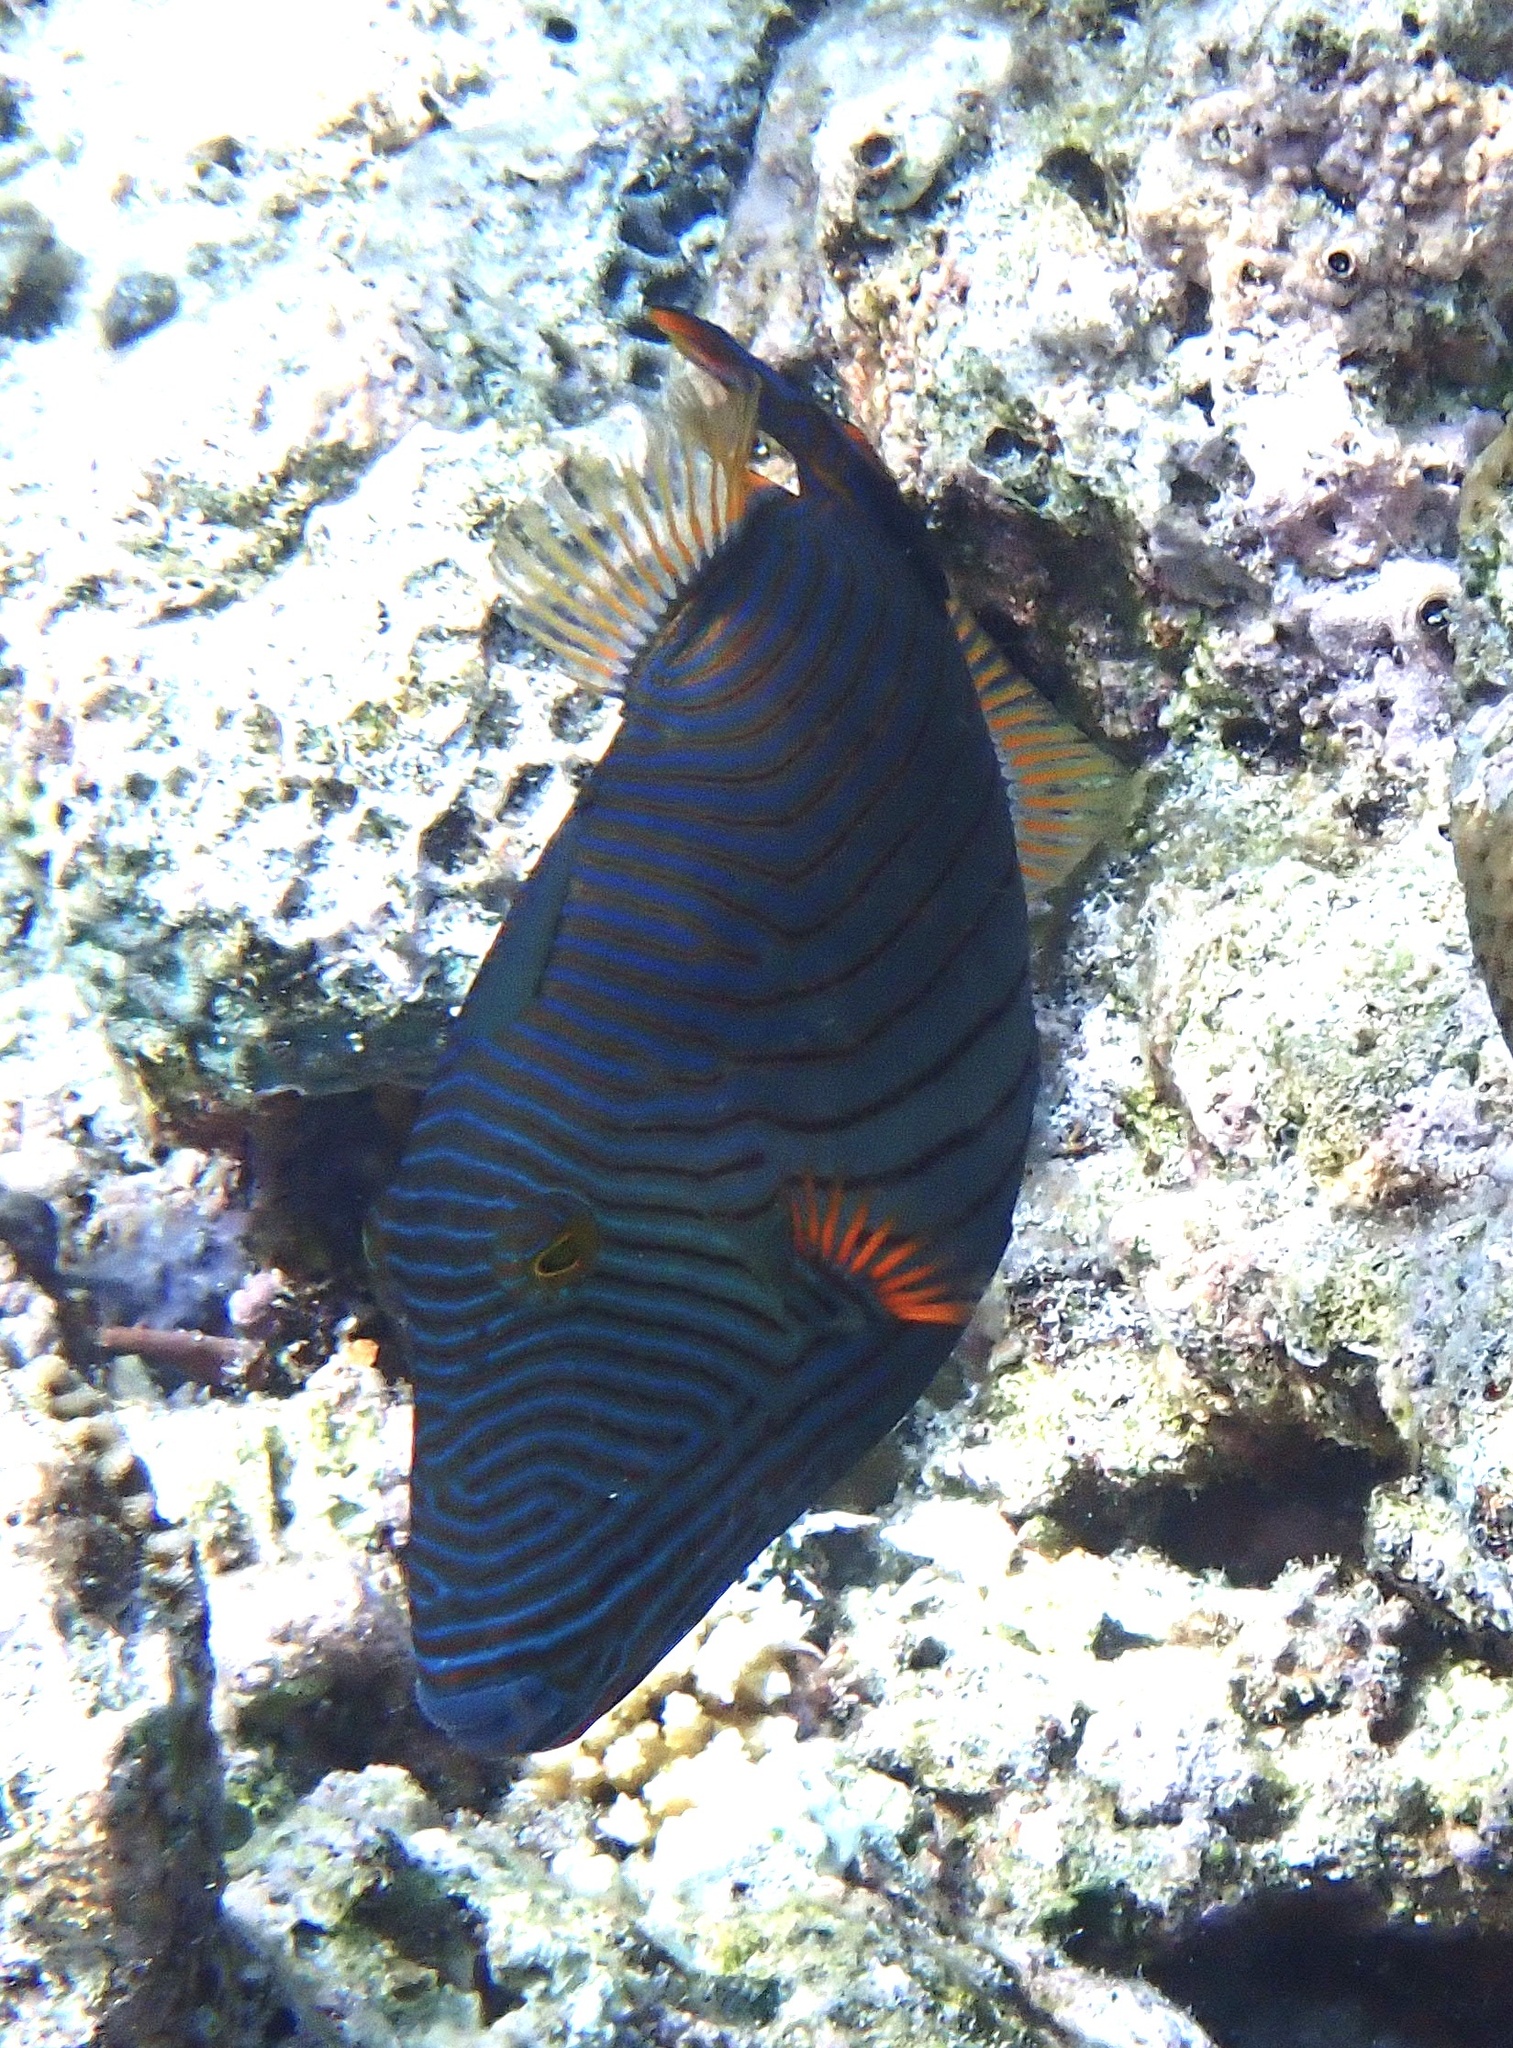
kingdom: Animalia
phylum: Chordata
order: Tetraodontiformes
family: Balistidae
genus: Balistapus
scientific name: Balistapus undulatus
